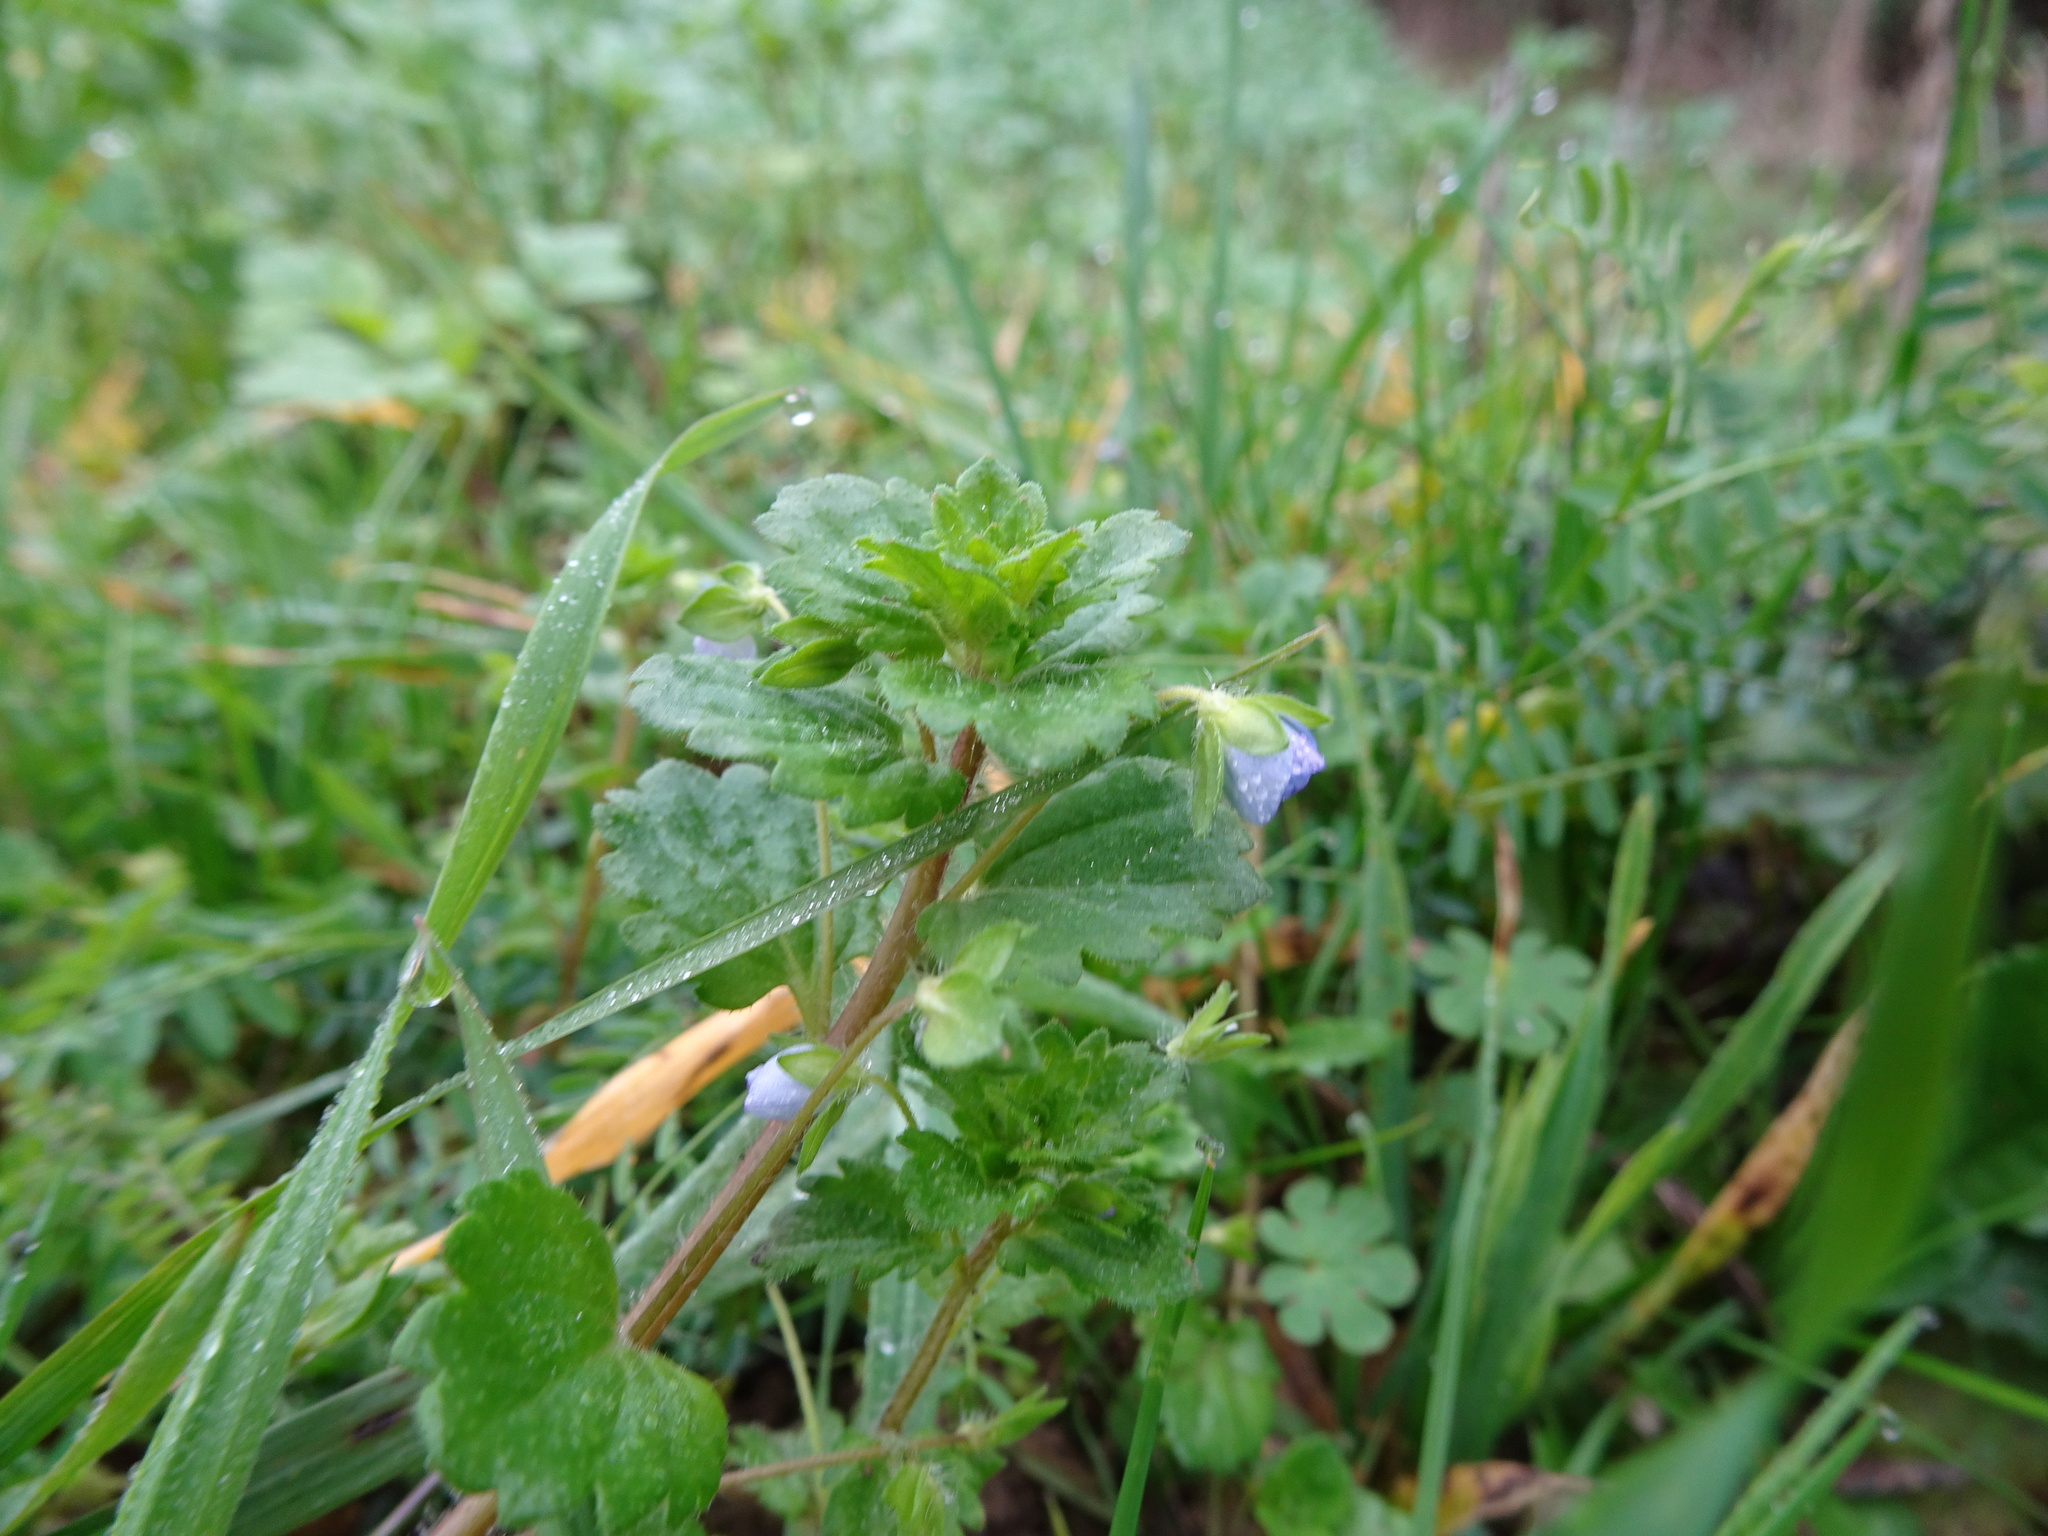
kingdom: Plantae
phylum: Tracheophyta
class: Magnoliopsida
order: Lamiales
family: Plantaginaceae
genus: Veronica
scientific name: Veronica persica
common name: Common field-speedwell
